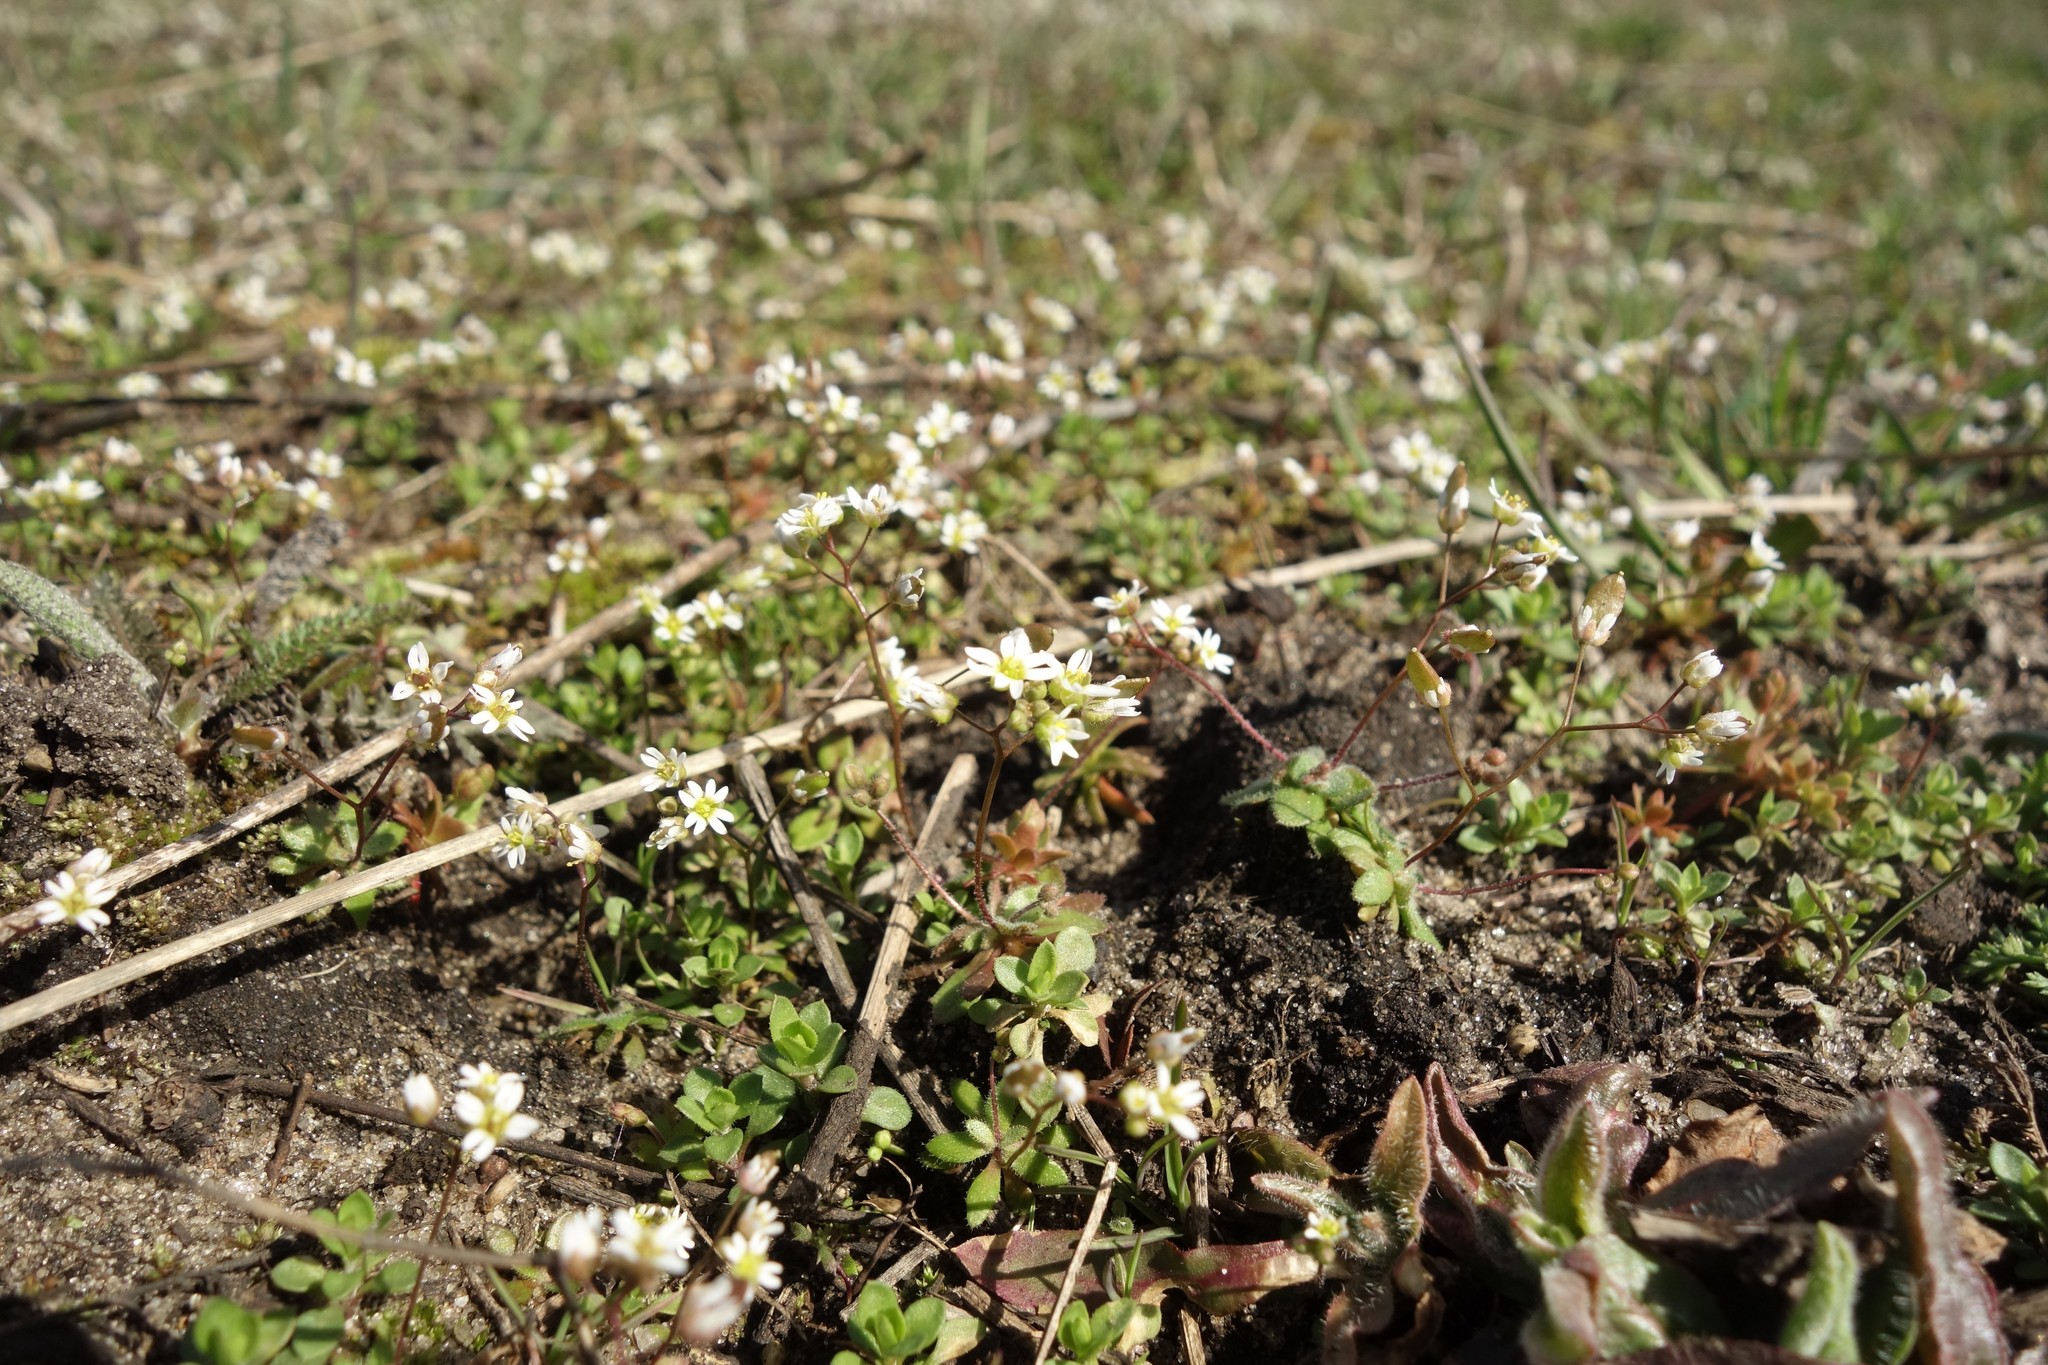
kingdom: Plantae
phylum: Tracheophyta
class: Magnoliopsida
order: Brassicales
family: Brassicaceae
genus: Draba
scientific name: Draba verna
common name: Spring draba
